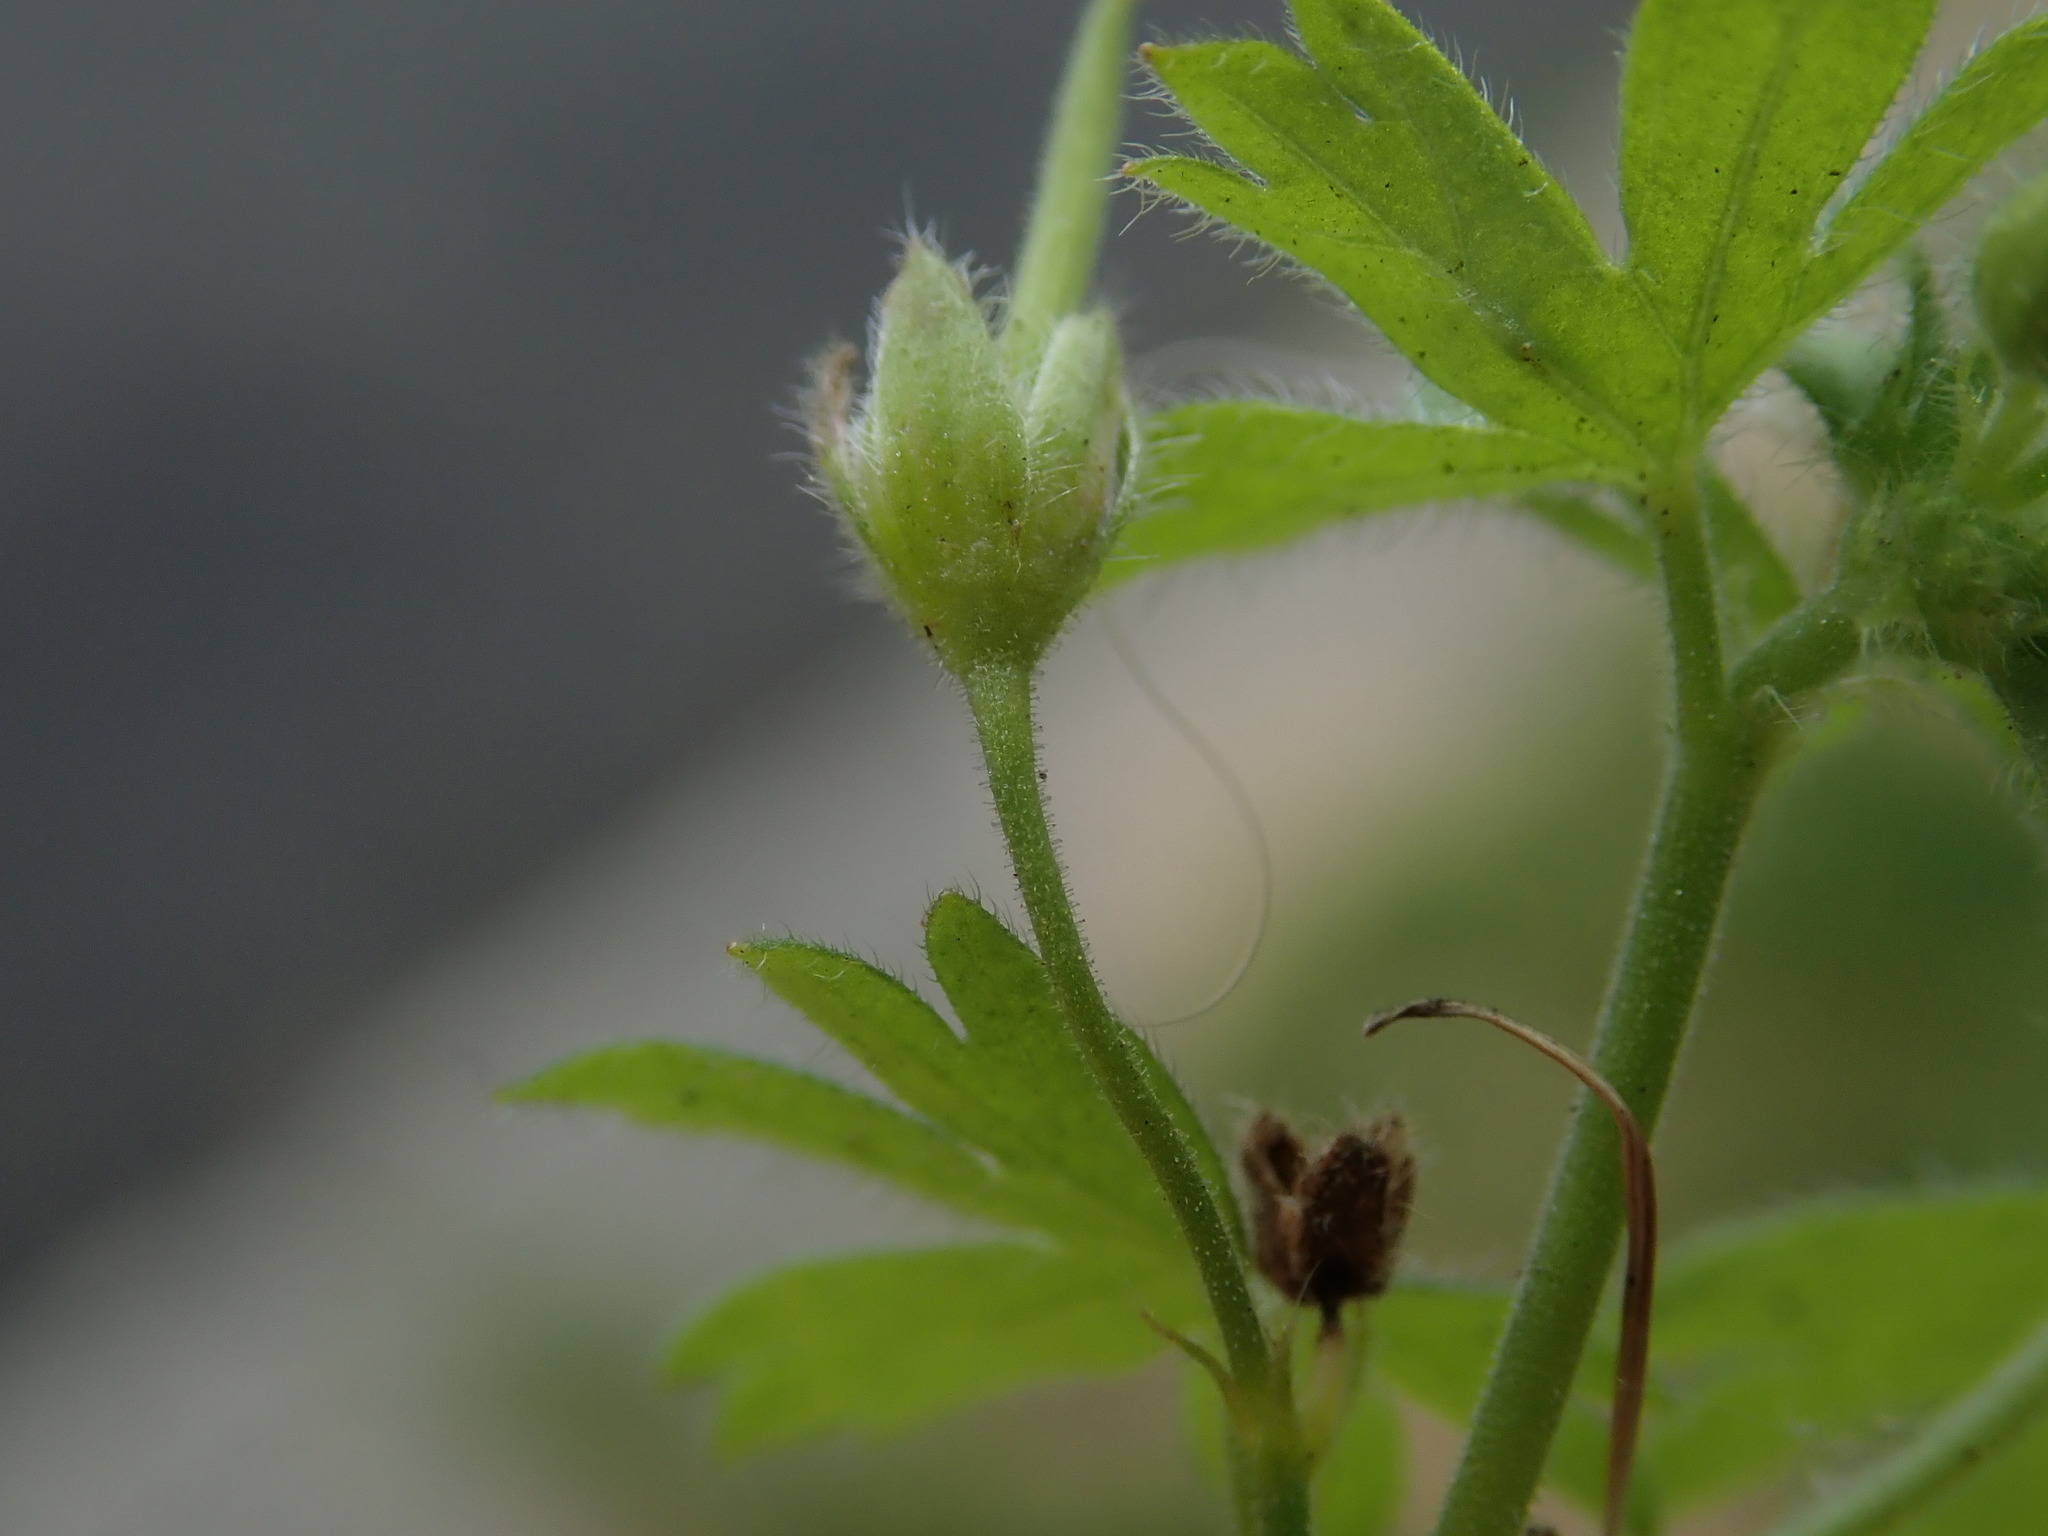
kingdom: Plantae
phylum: Tracheophyta
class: Magnoliopsida
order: Geraniales
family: Geraniaceae
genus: Geranium
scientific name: Geranium pusillum
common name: Small geranium
